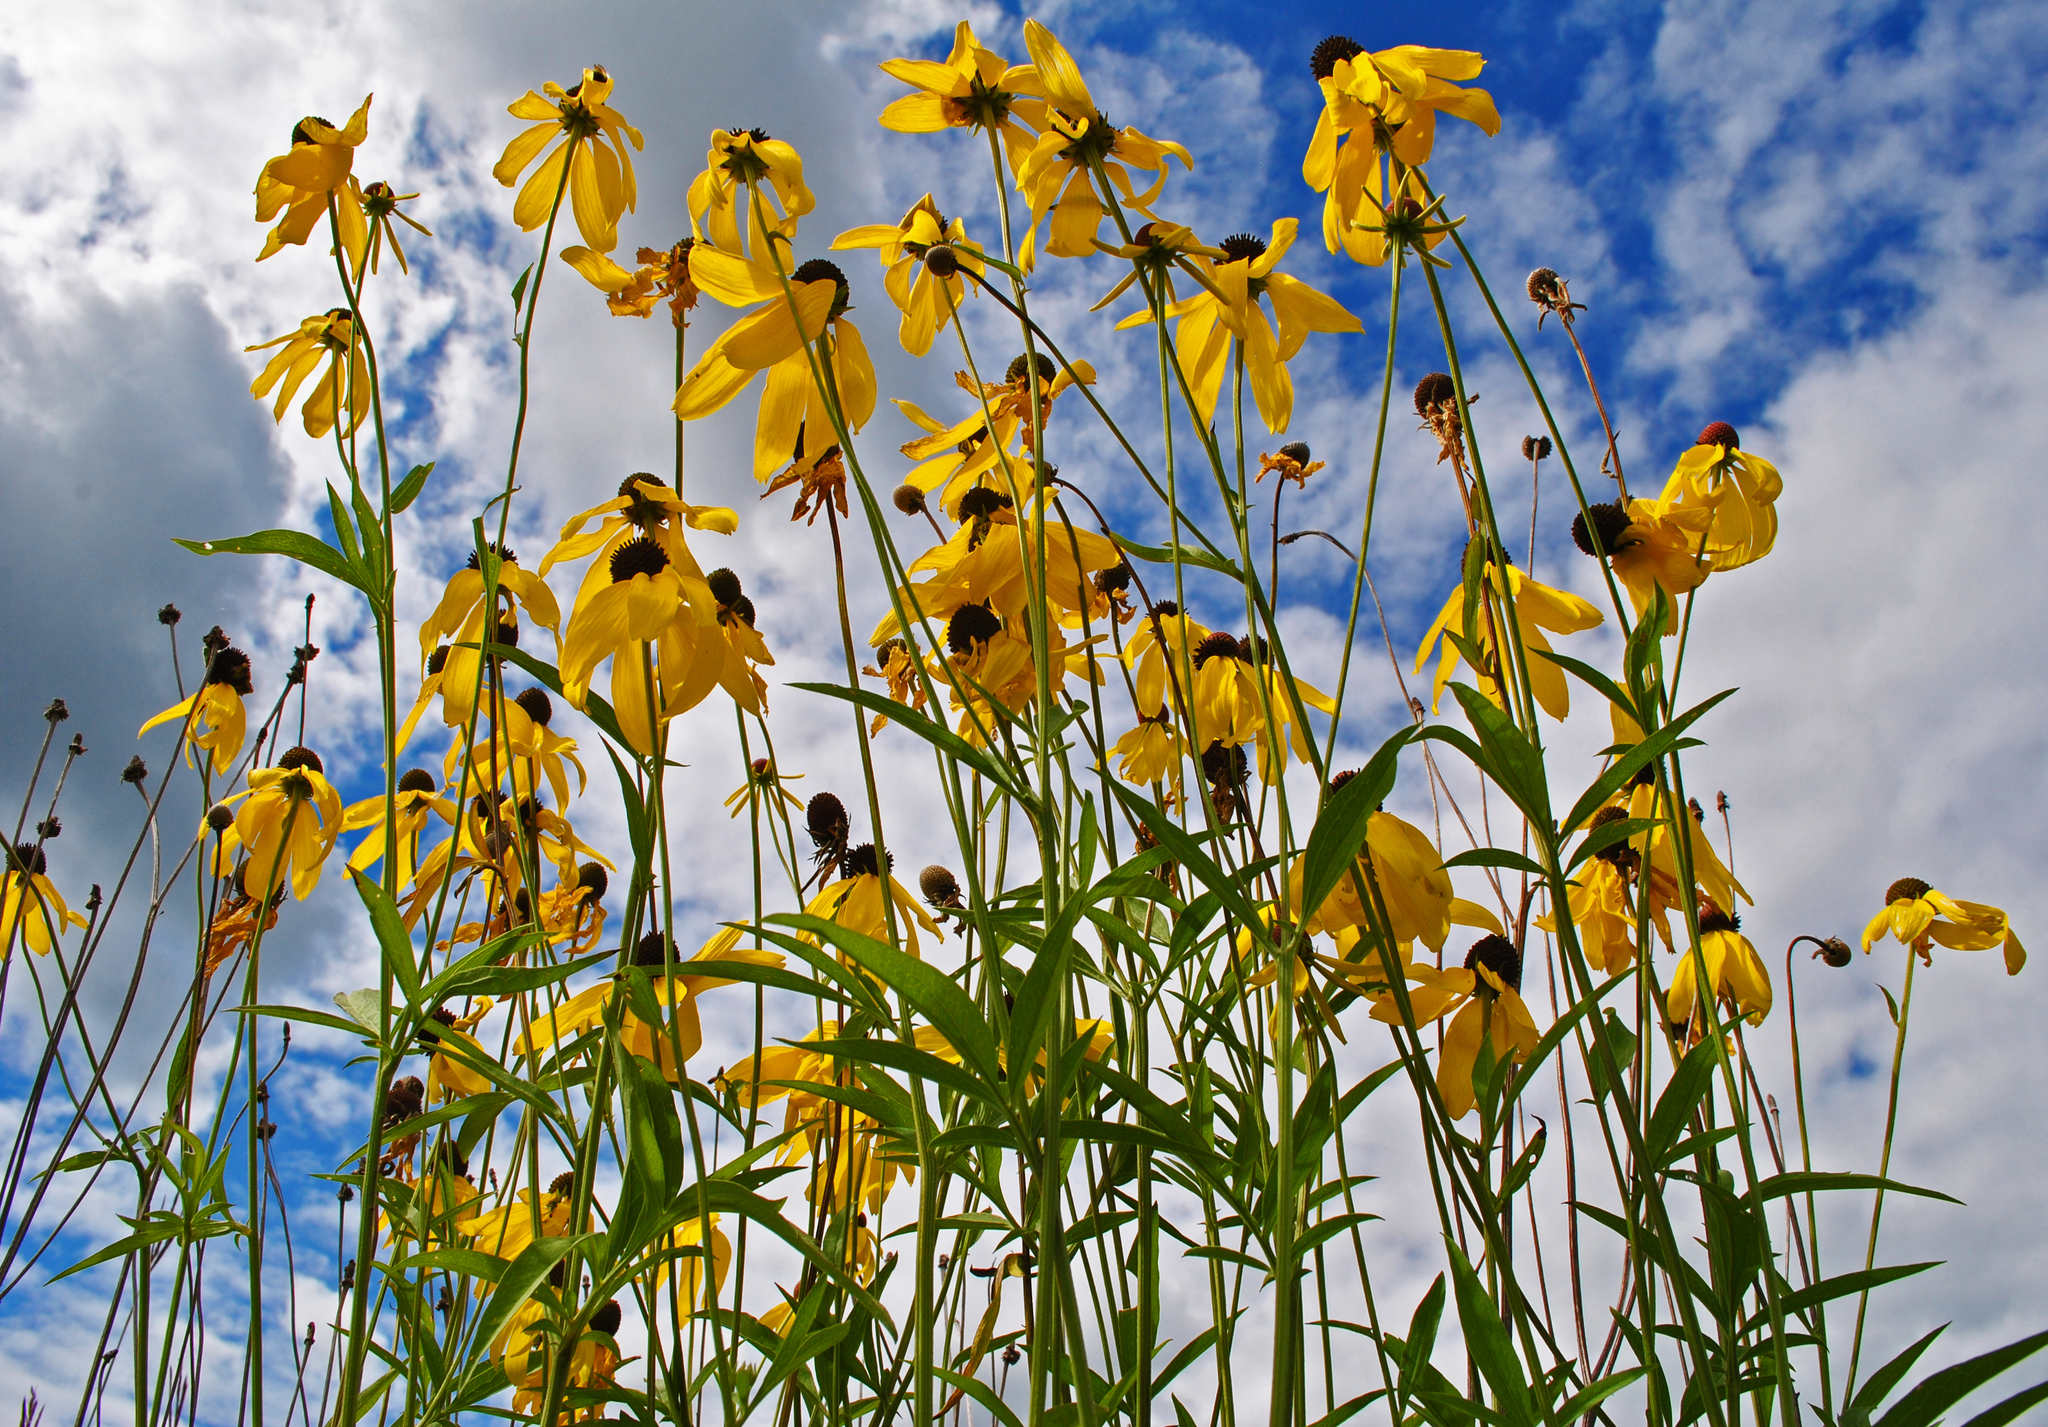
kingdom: Plantae
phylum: Tracheophyta
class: Magnoliopsida
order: Asterales
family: Asteraceae
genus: Ratibida
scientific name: Ratibida pinnata
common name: Drooping prairie-coneflower
